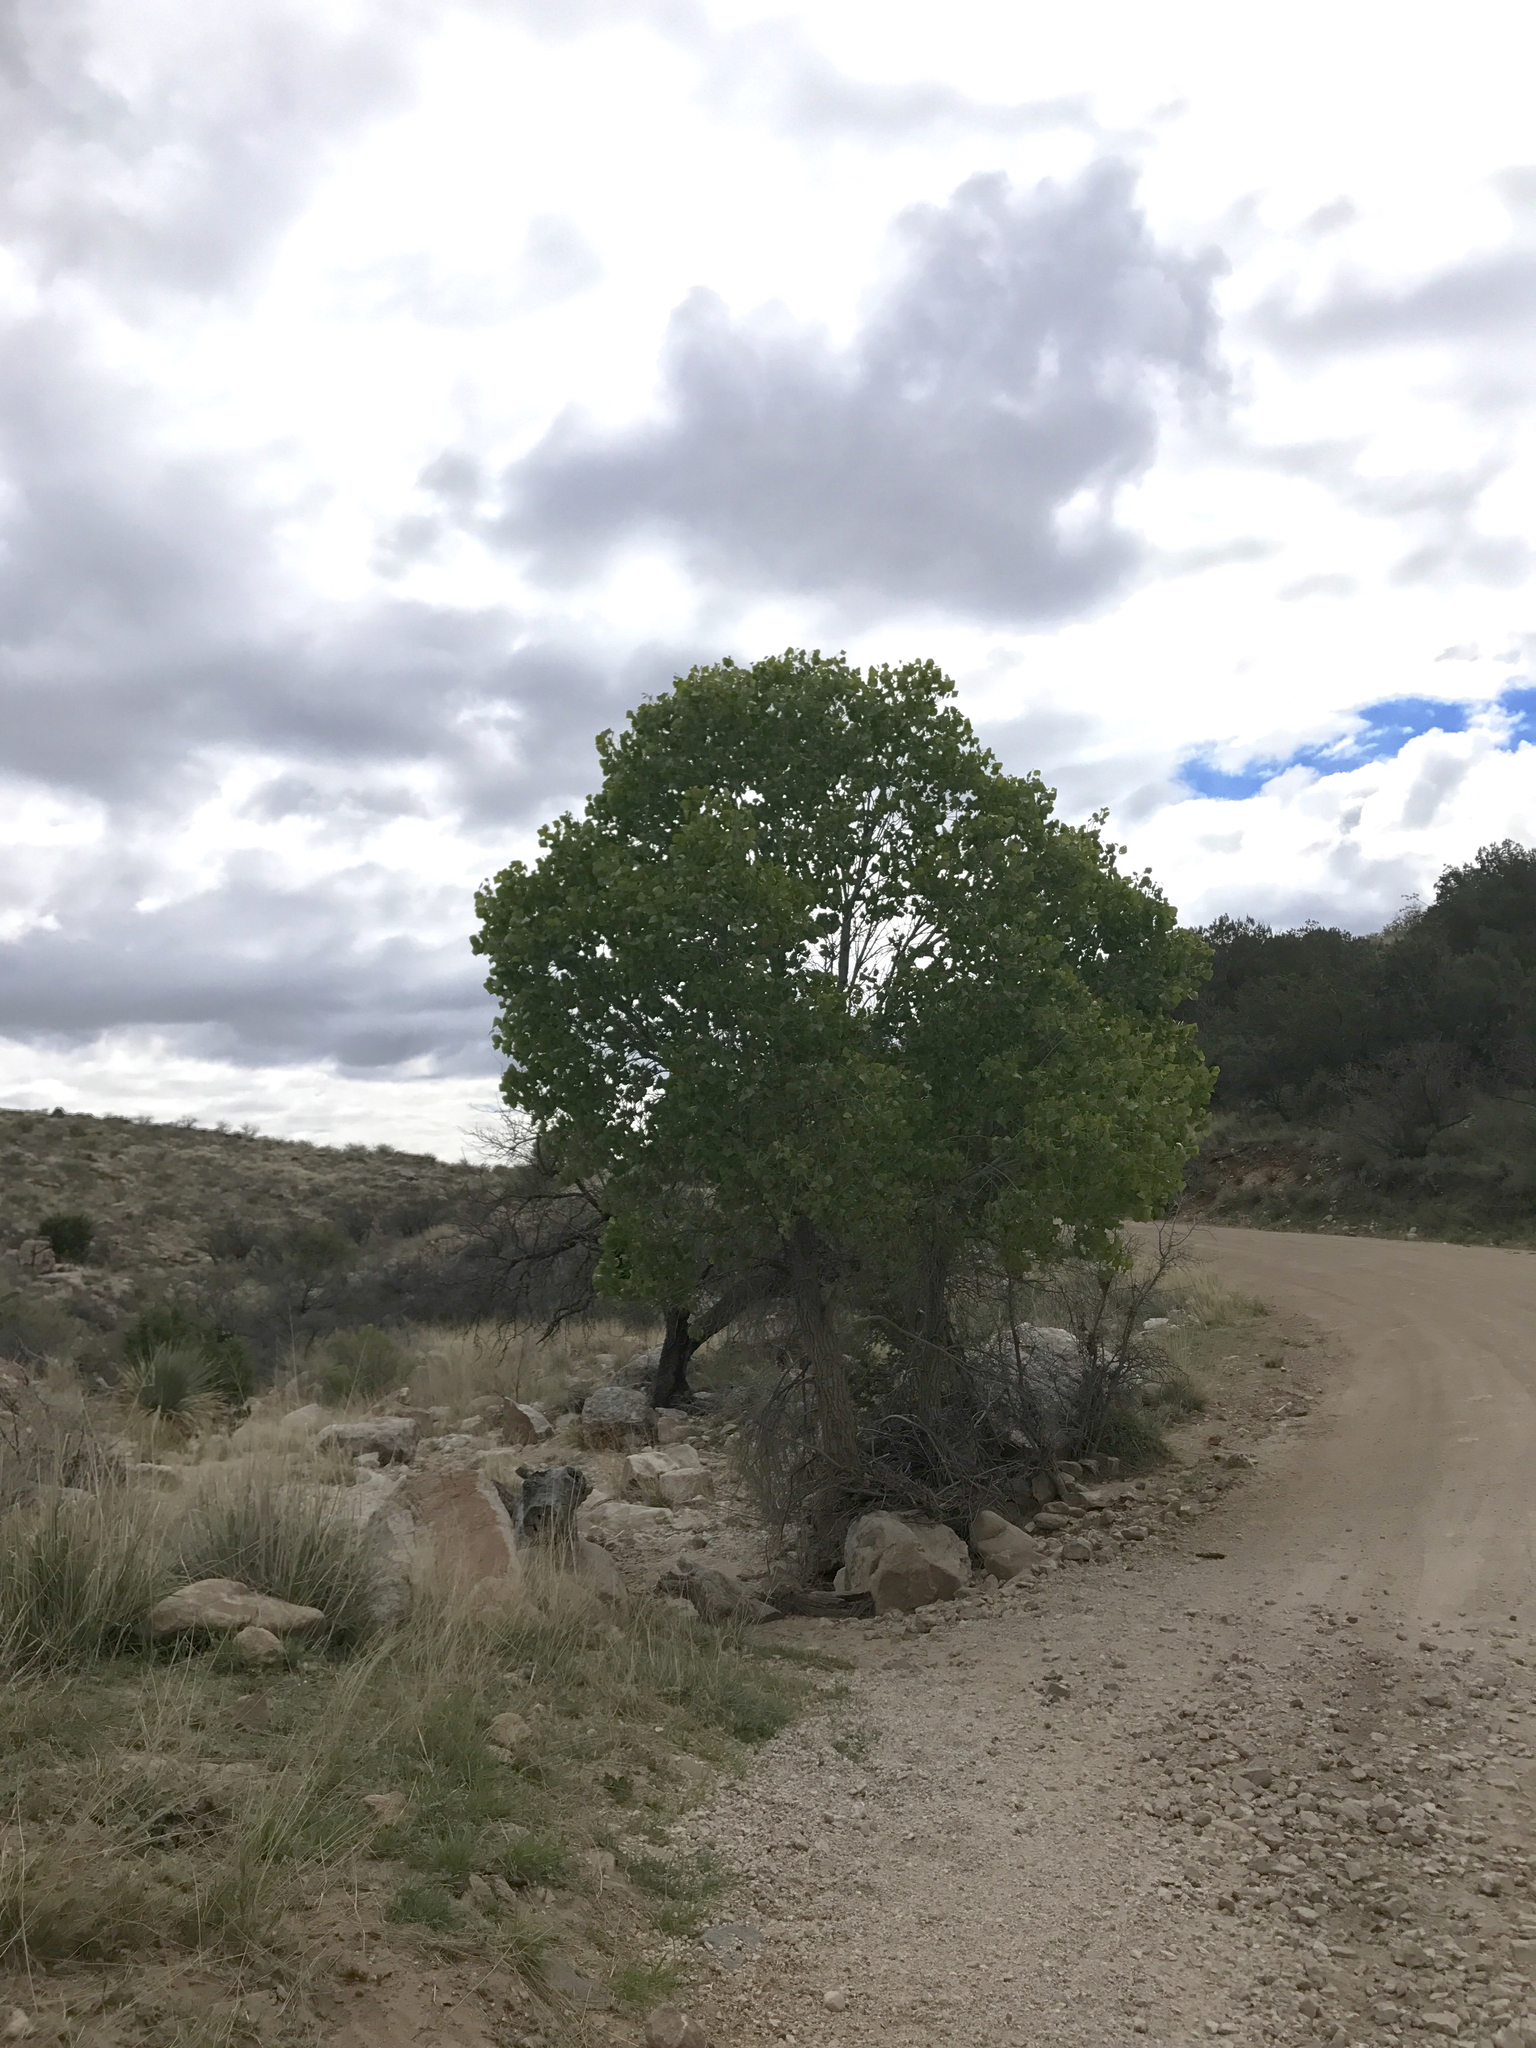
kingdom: Plantae
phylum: Tracheophyta
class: Magnoliopsida
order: Malpighiales
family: Salicaceae
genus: Populus
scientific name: Populus fremontii
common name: Fremont's cottonwood
